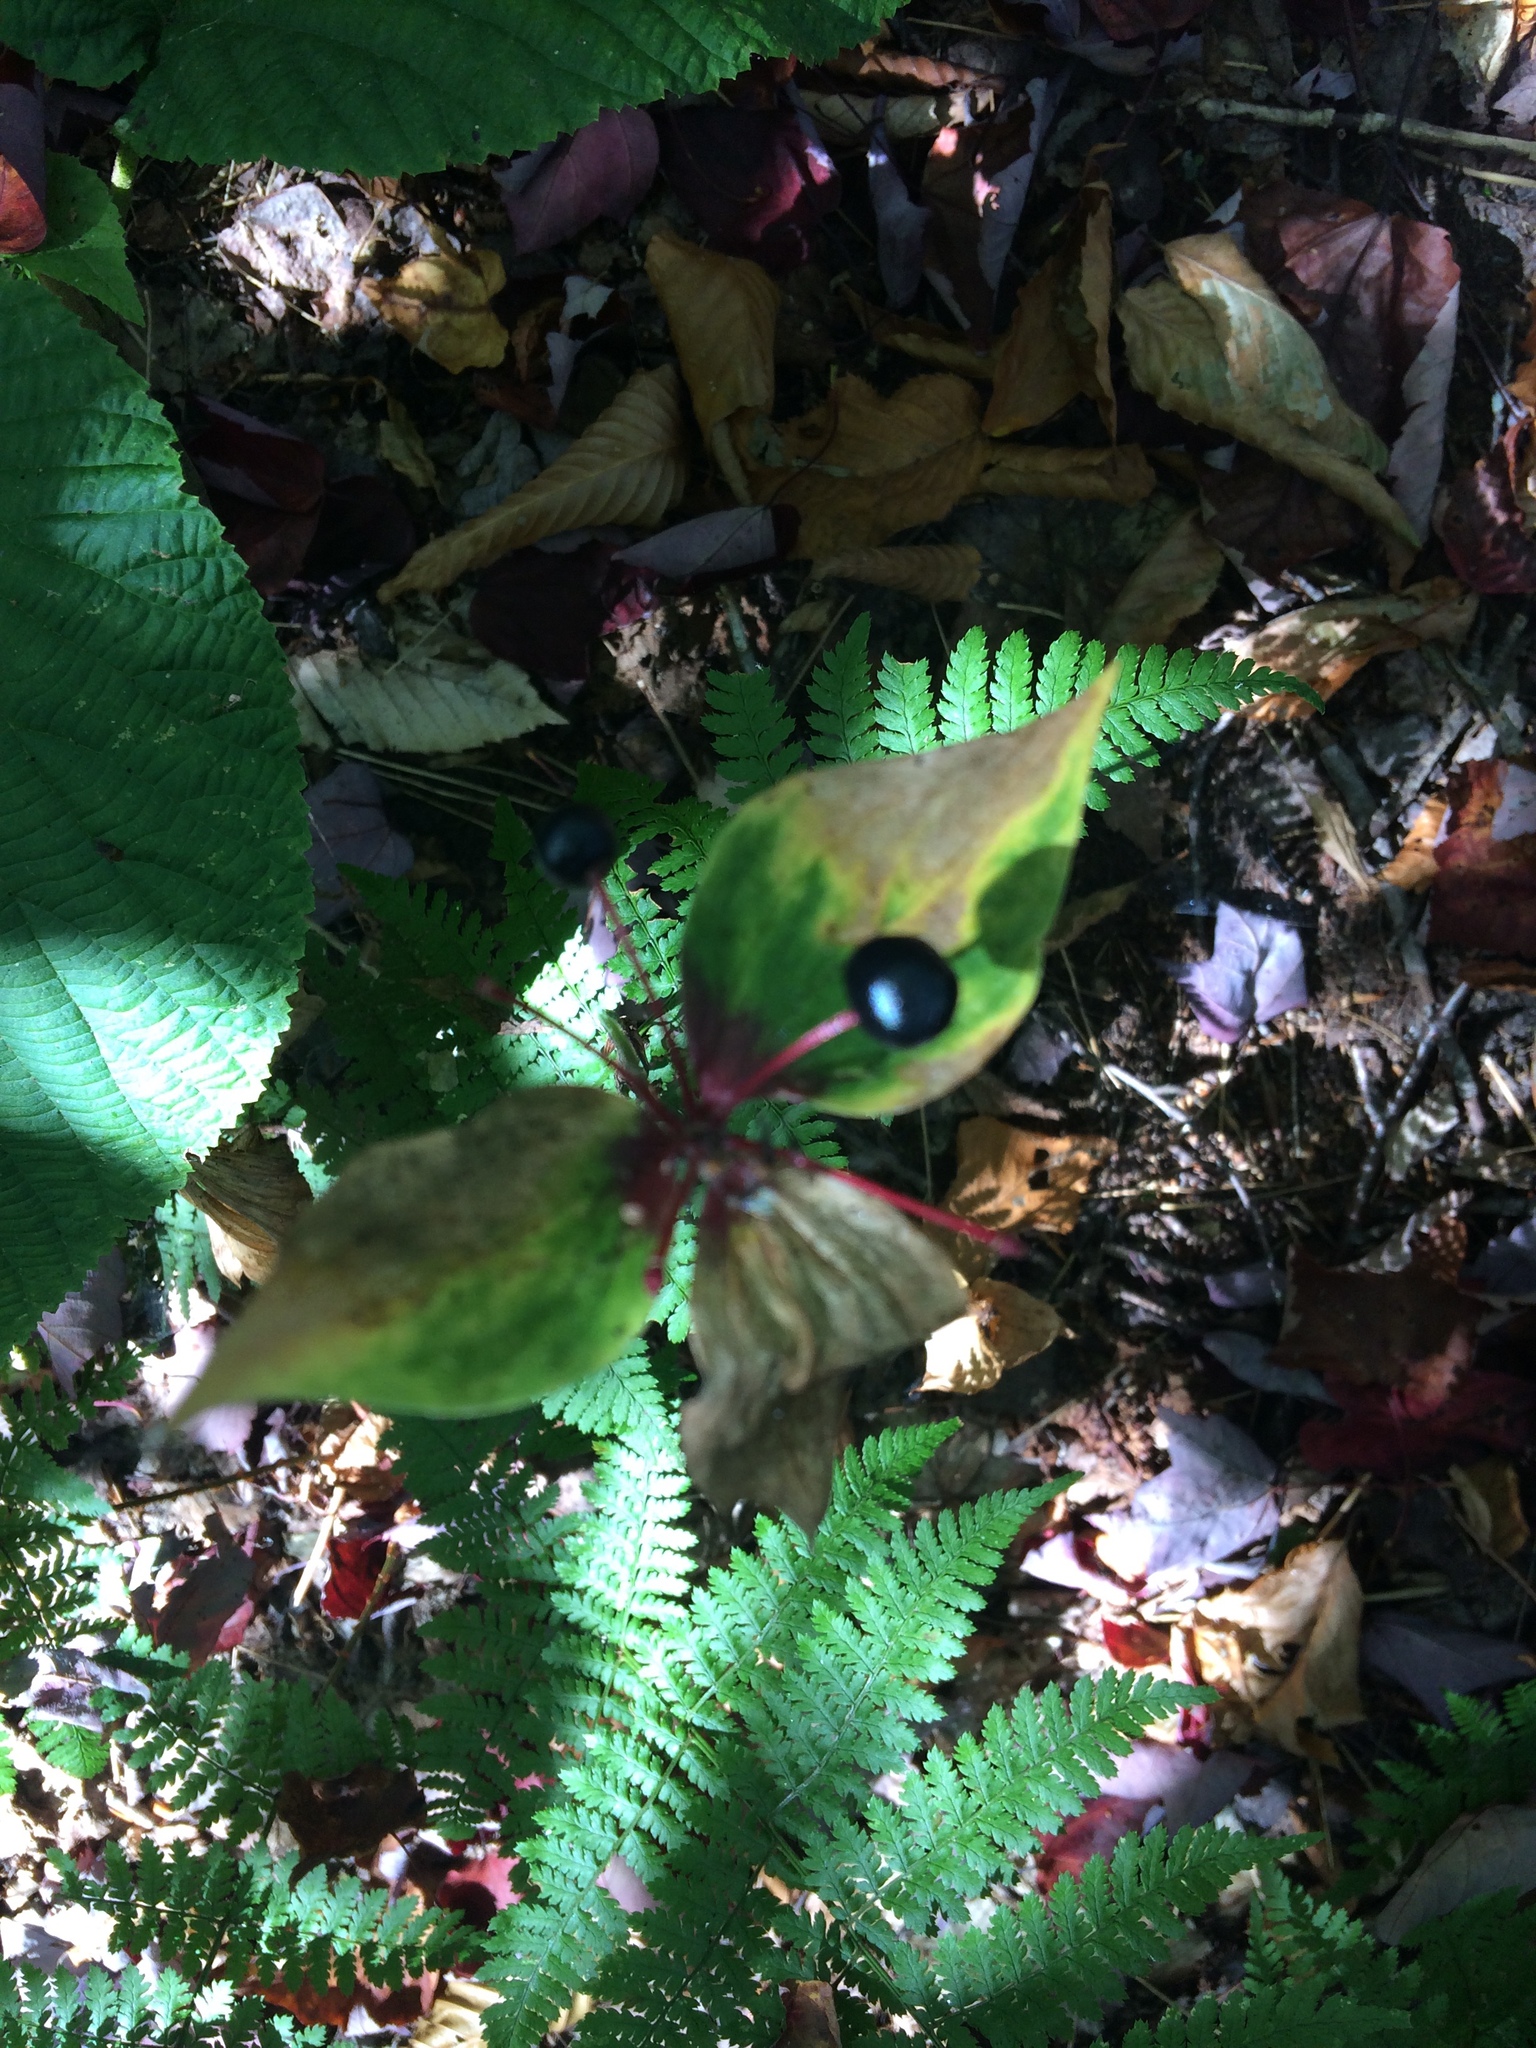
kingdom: Plantae
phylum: Tracheophyta
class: Liliopsida
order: Liliales
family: Liliaceae
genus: Medeola
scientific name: Medeola virginiana
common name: Indian cucumber-root
